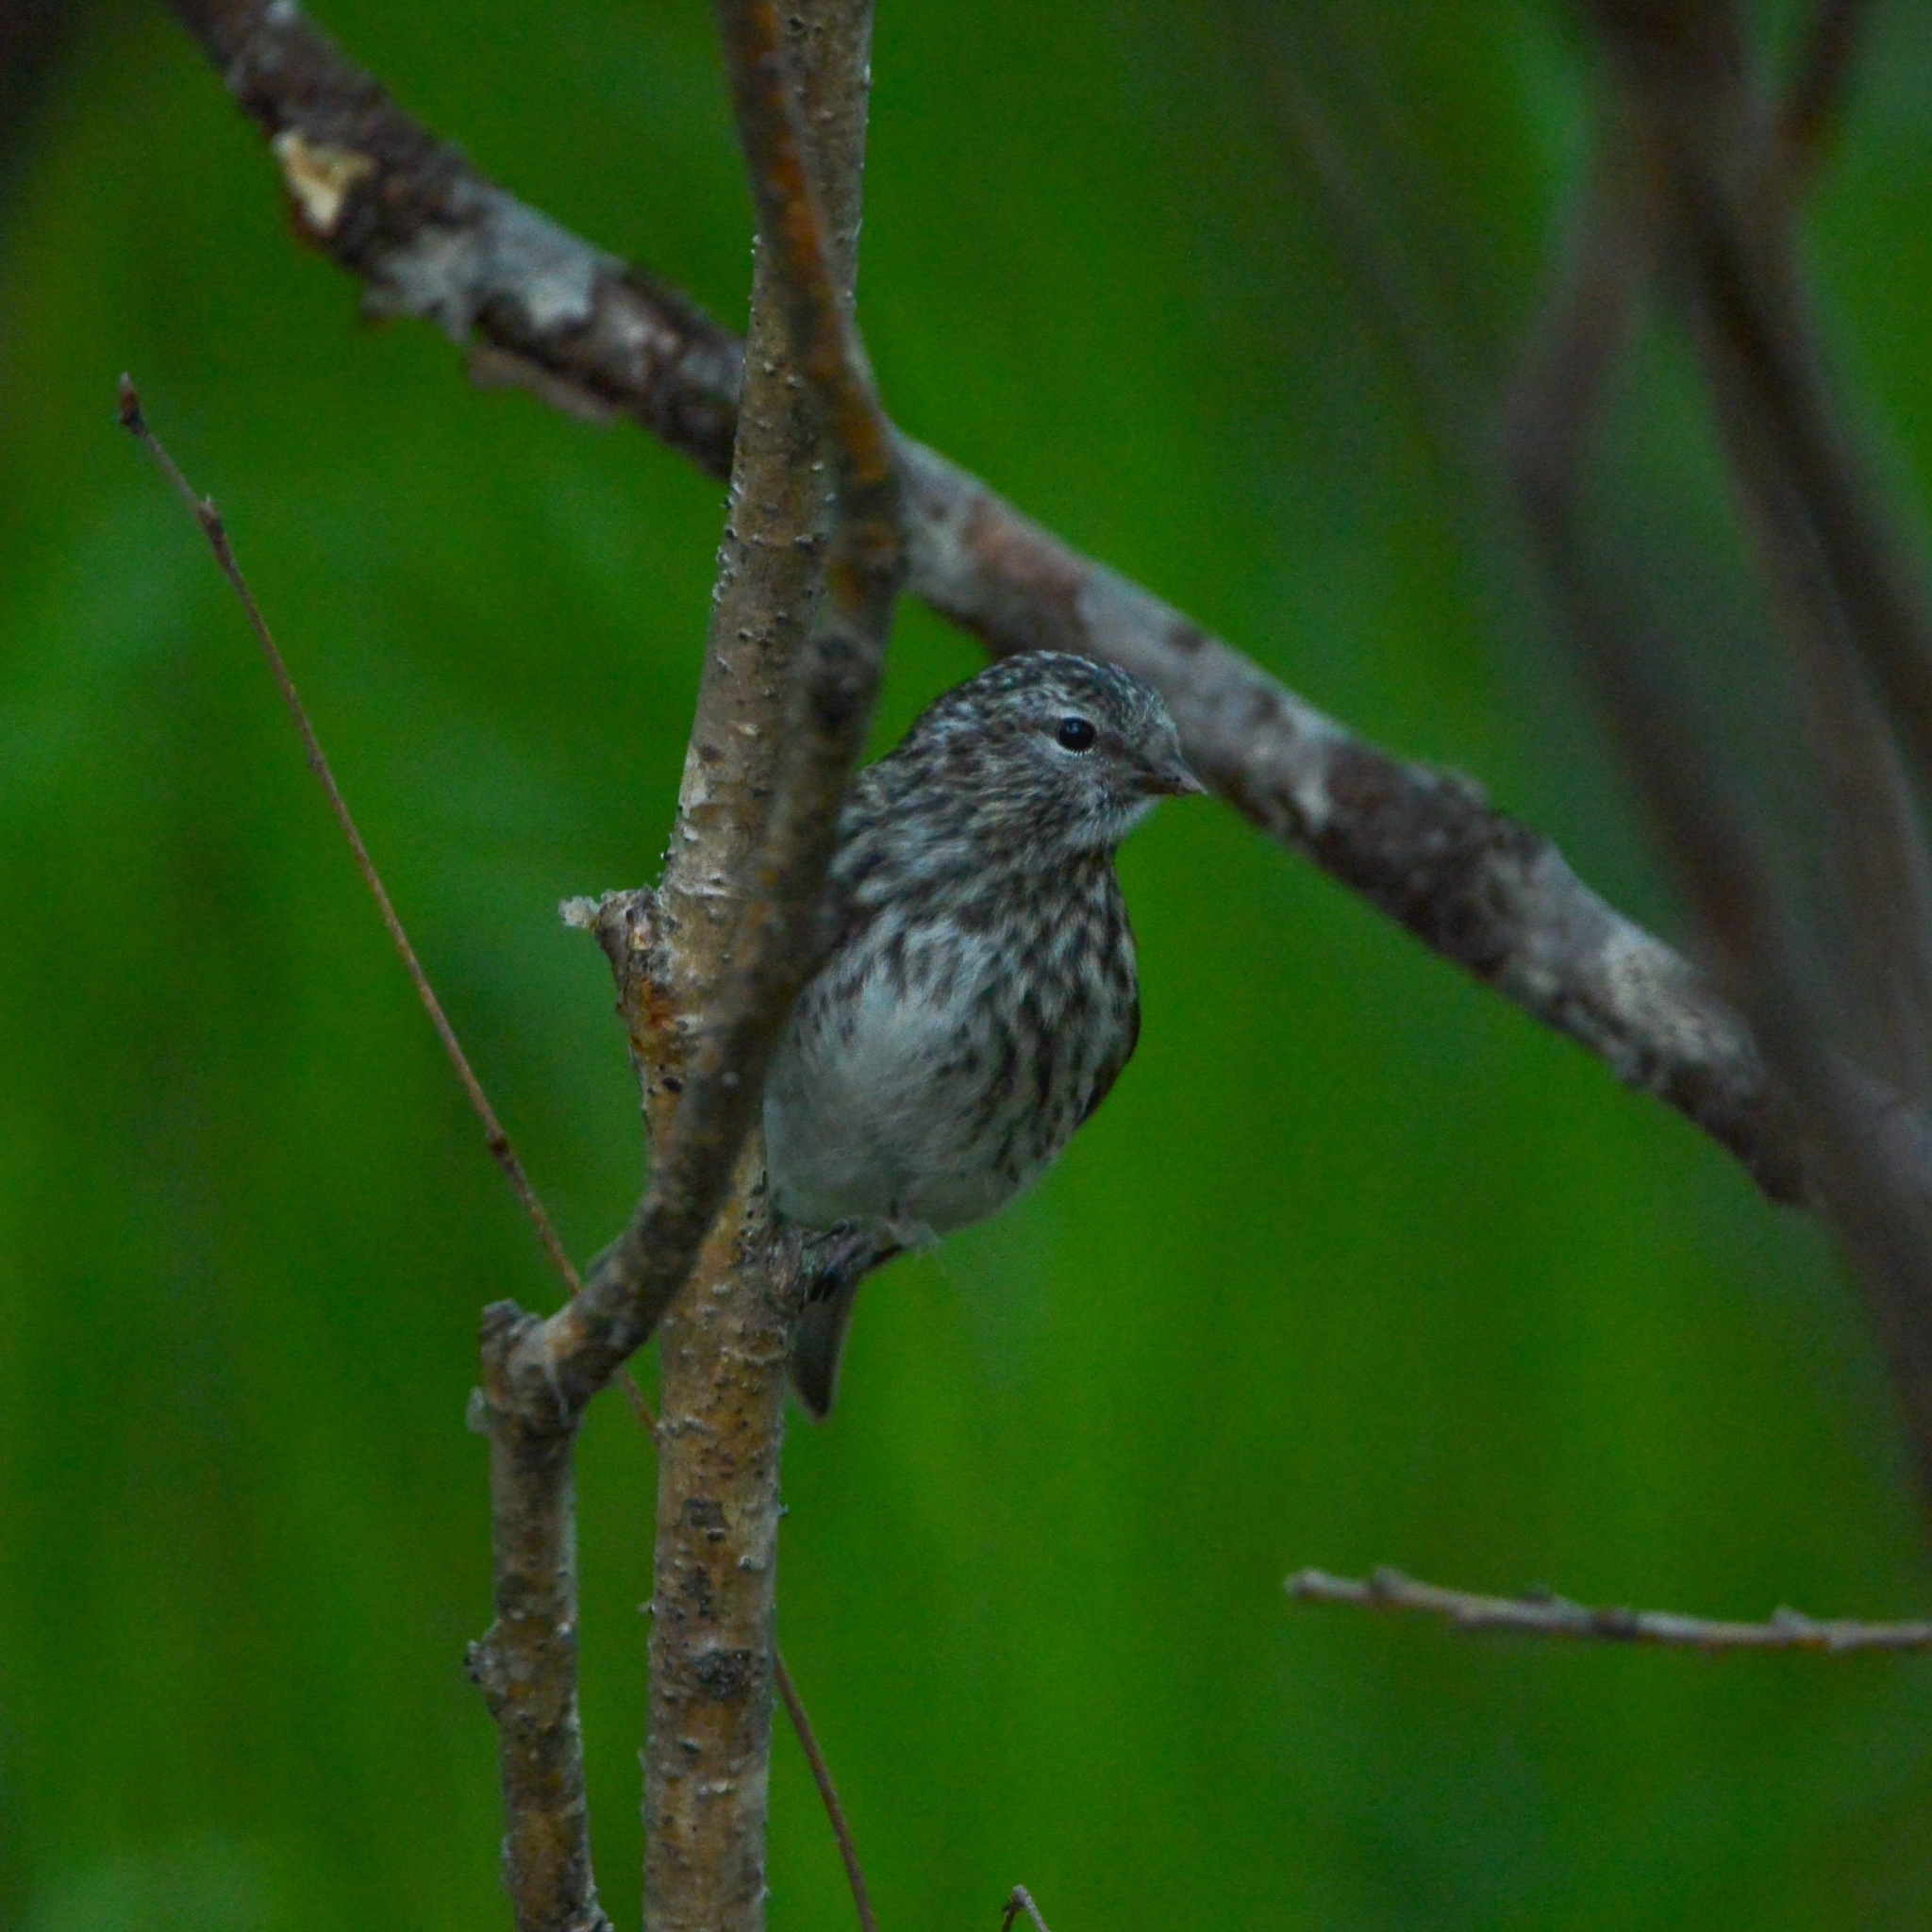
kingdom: Animalia
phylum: Chordata
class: Aves
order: Passeriformes
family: Fringillidae
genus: Acanthis
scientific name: Acanthis flammea
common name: Common redpoll
